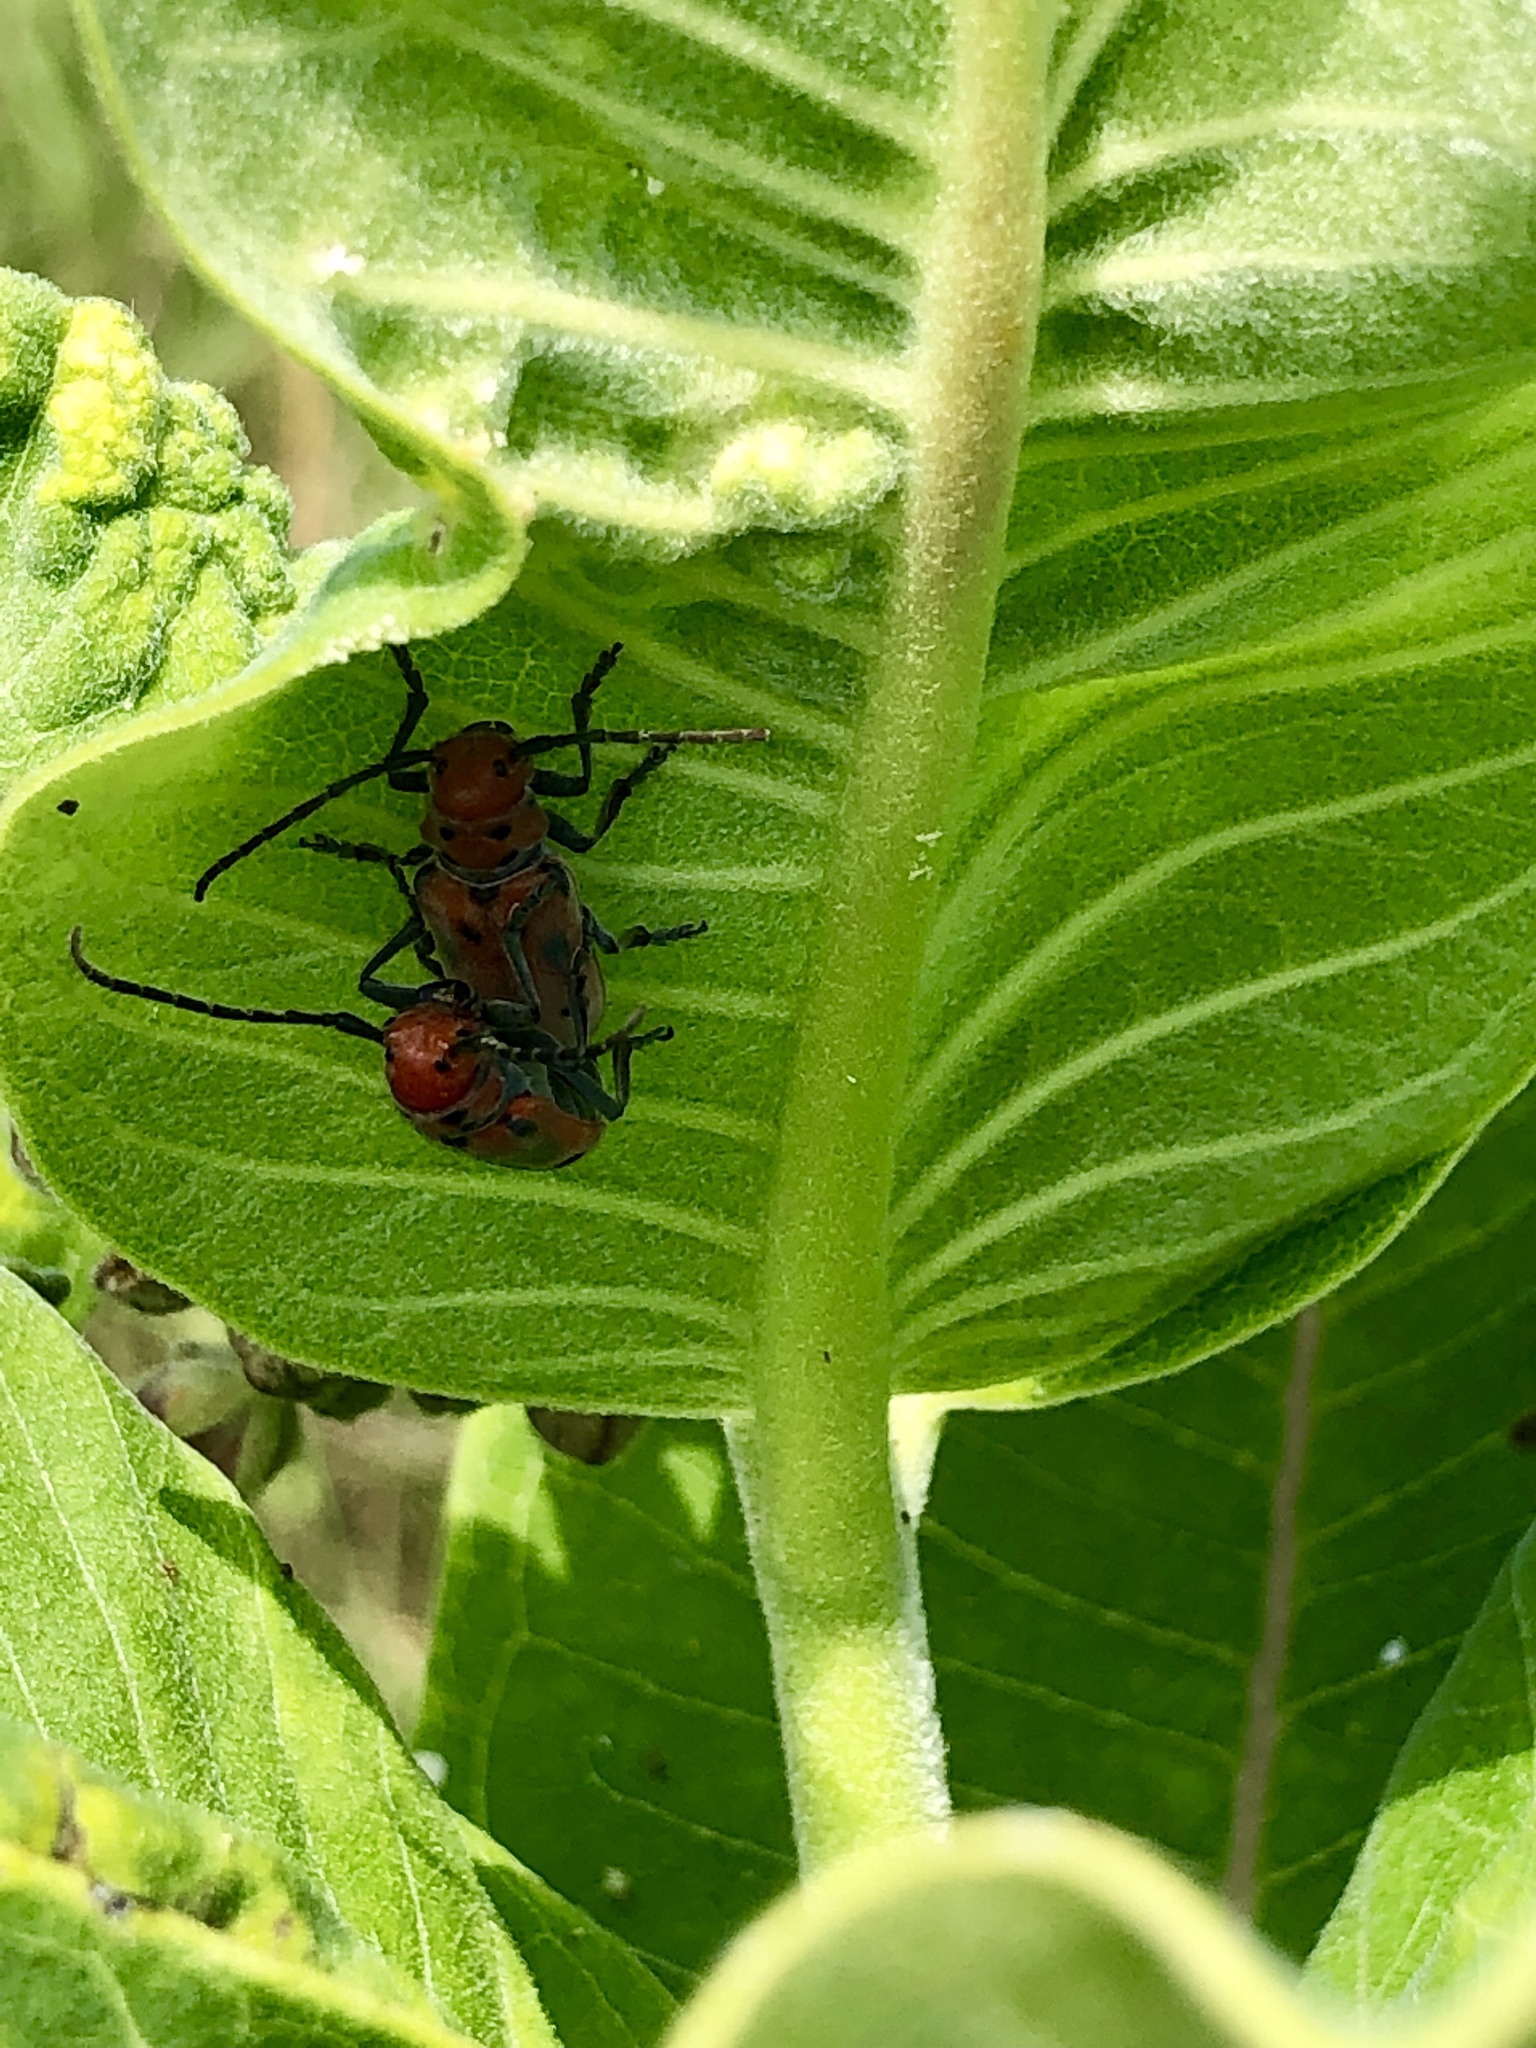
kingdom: Animalia
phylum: Arthropoda
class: Insecta
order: Coleoptera
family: Cerambycidae
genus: Tetraopes
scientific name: Tetraopes tetrophthalmus
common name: Red milkweed beetle
